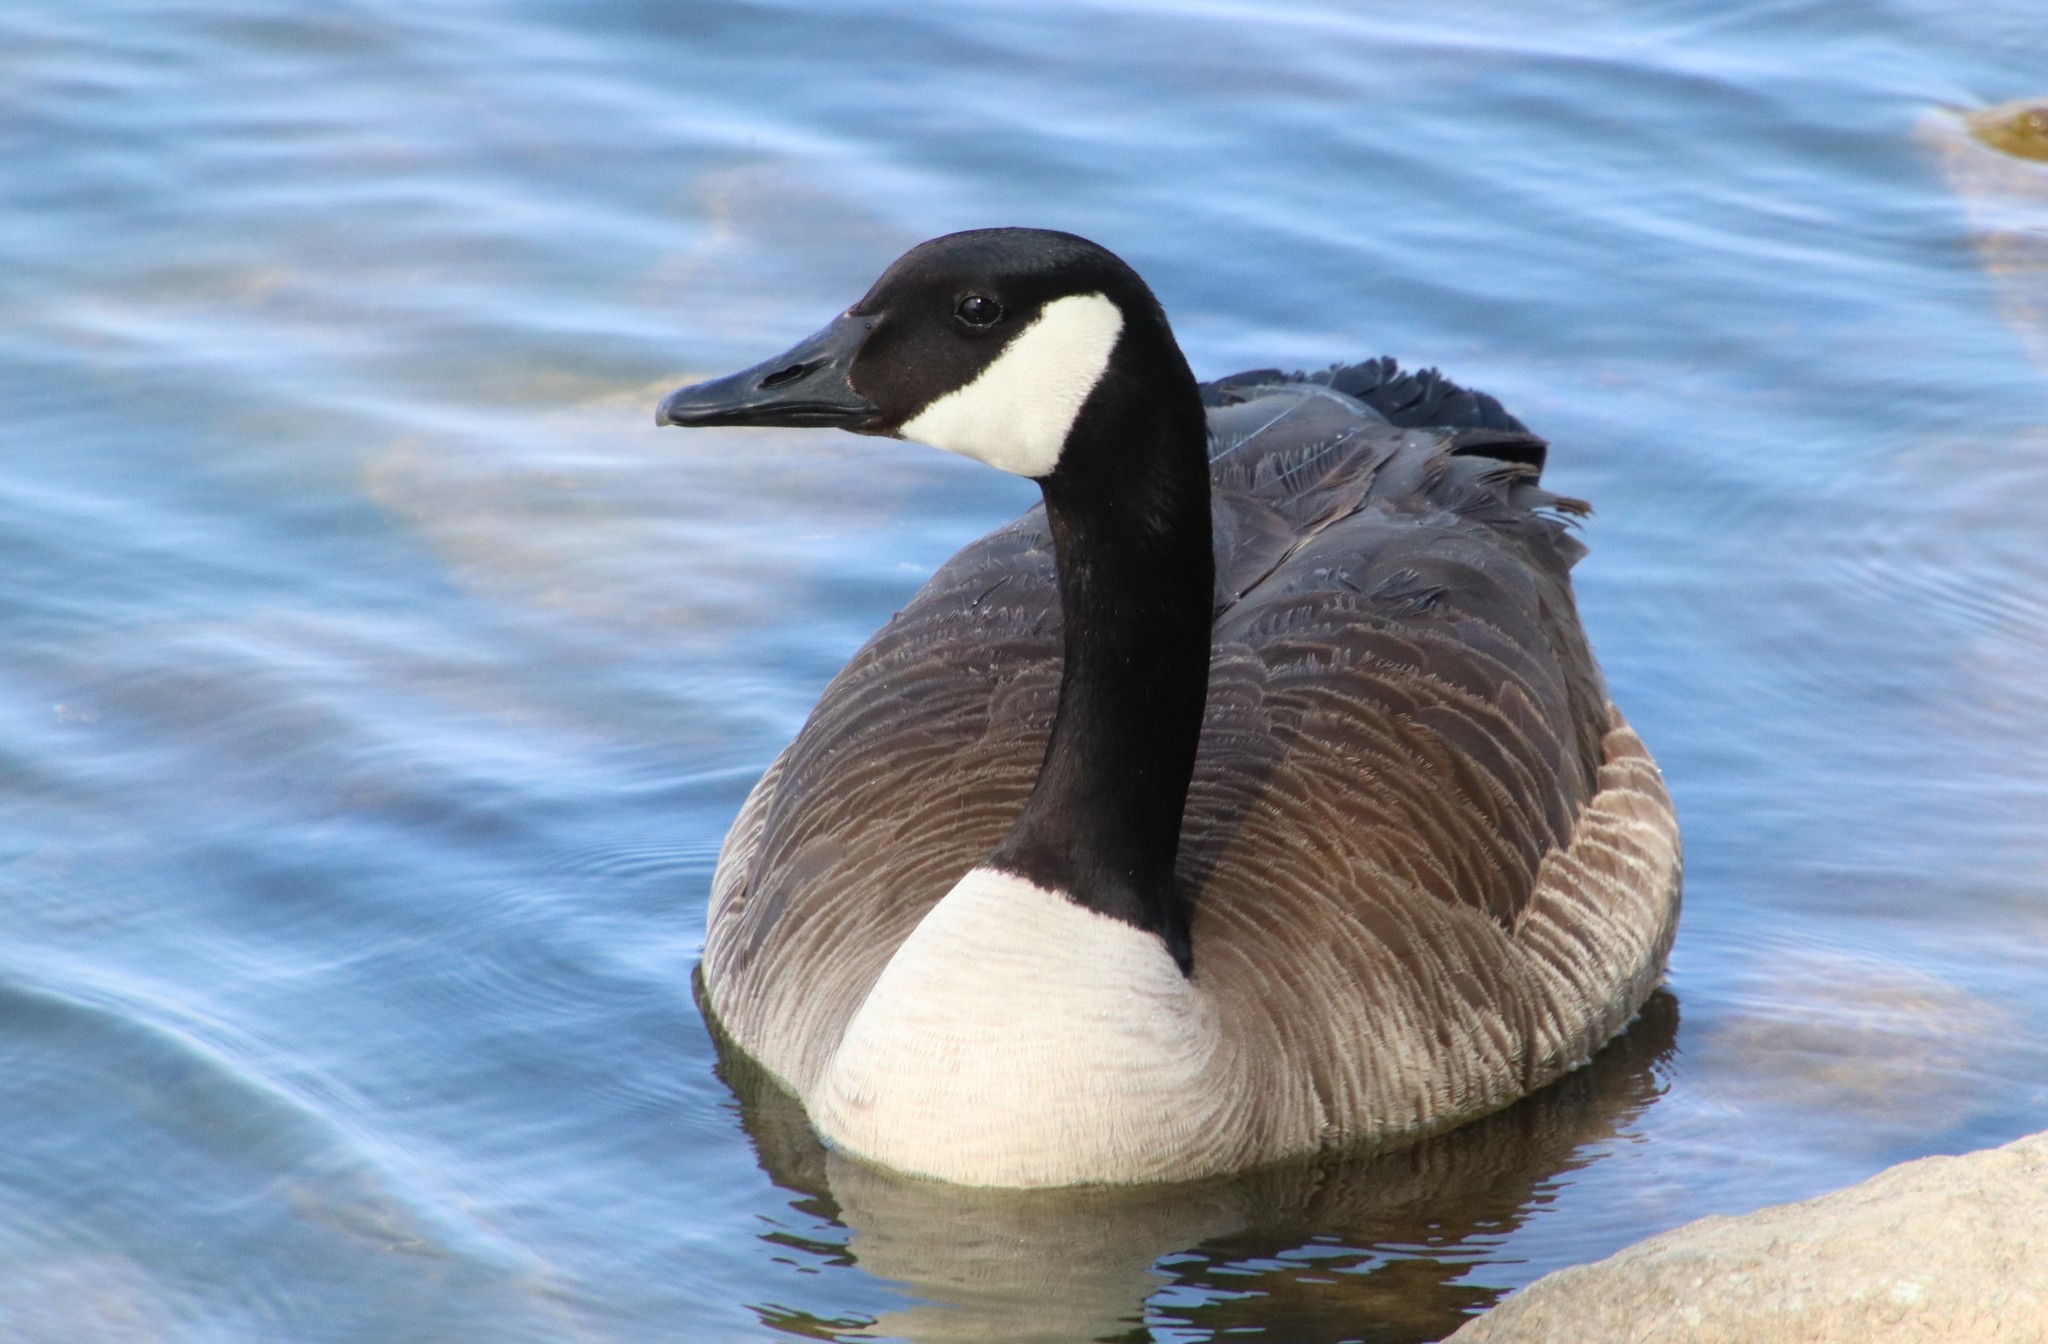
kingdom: Animalia
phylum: Chordata
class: Aves
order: Anseriformes
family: Anatidae
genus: Branta
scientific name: Branta canadensis
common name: Canada goose
